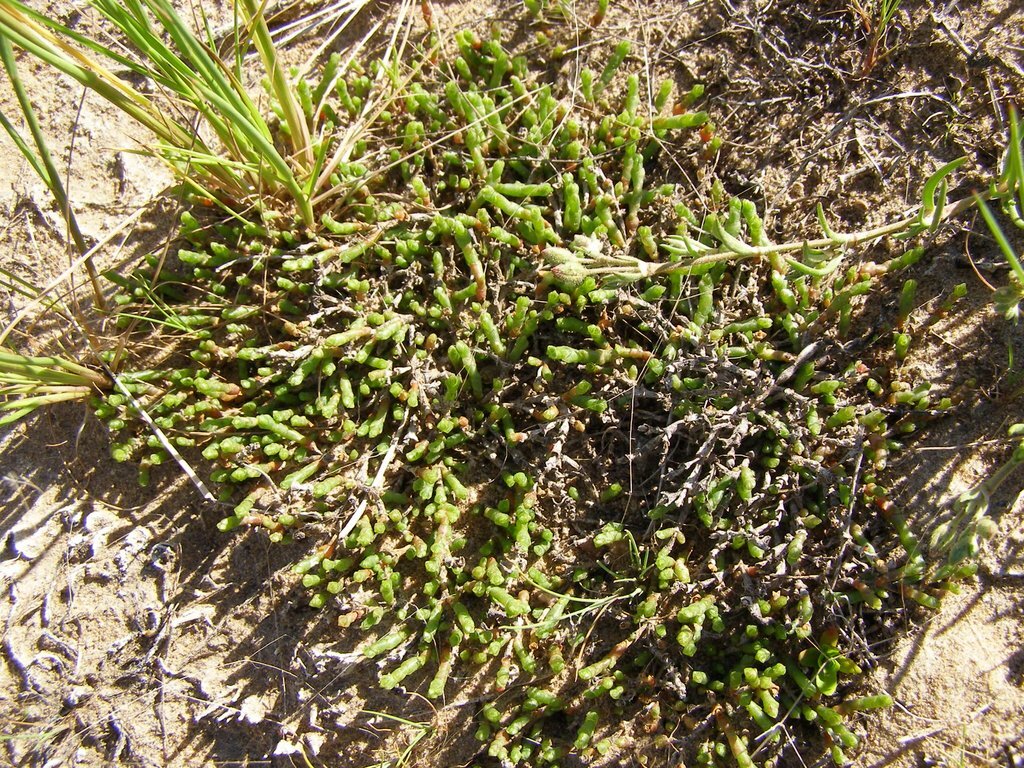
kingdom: Plantae
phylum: Tracheophyta
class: Magnoliopsida
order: Caryophyllales
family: Amaranthaceae
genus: Salicornia
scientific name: Salicornia quinqueflora
